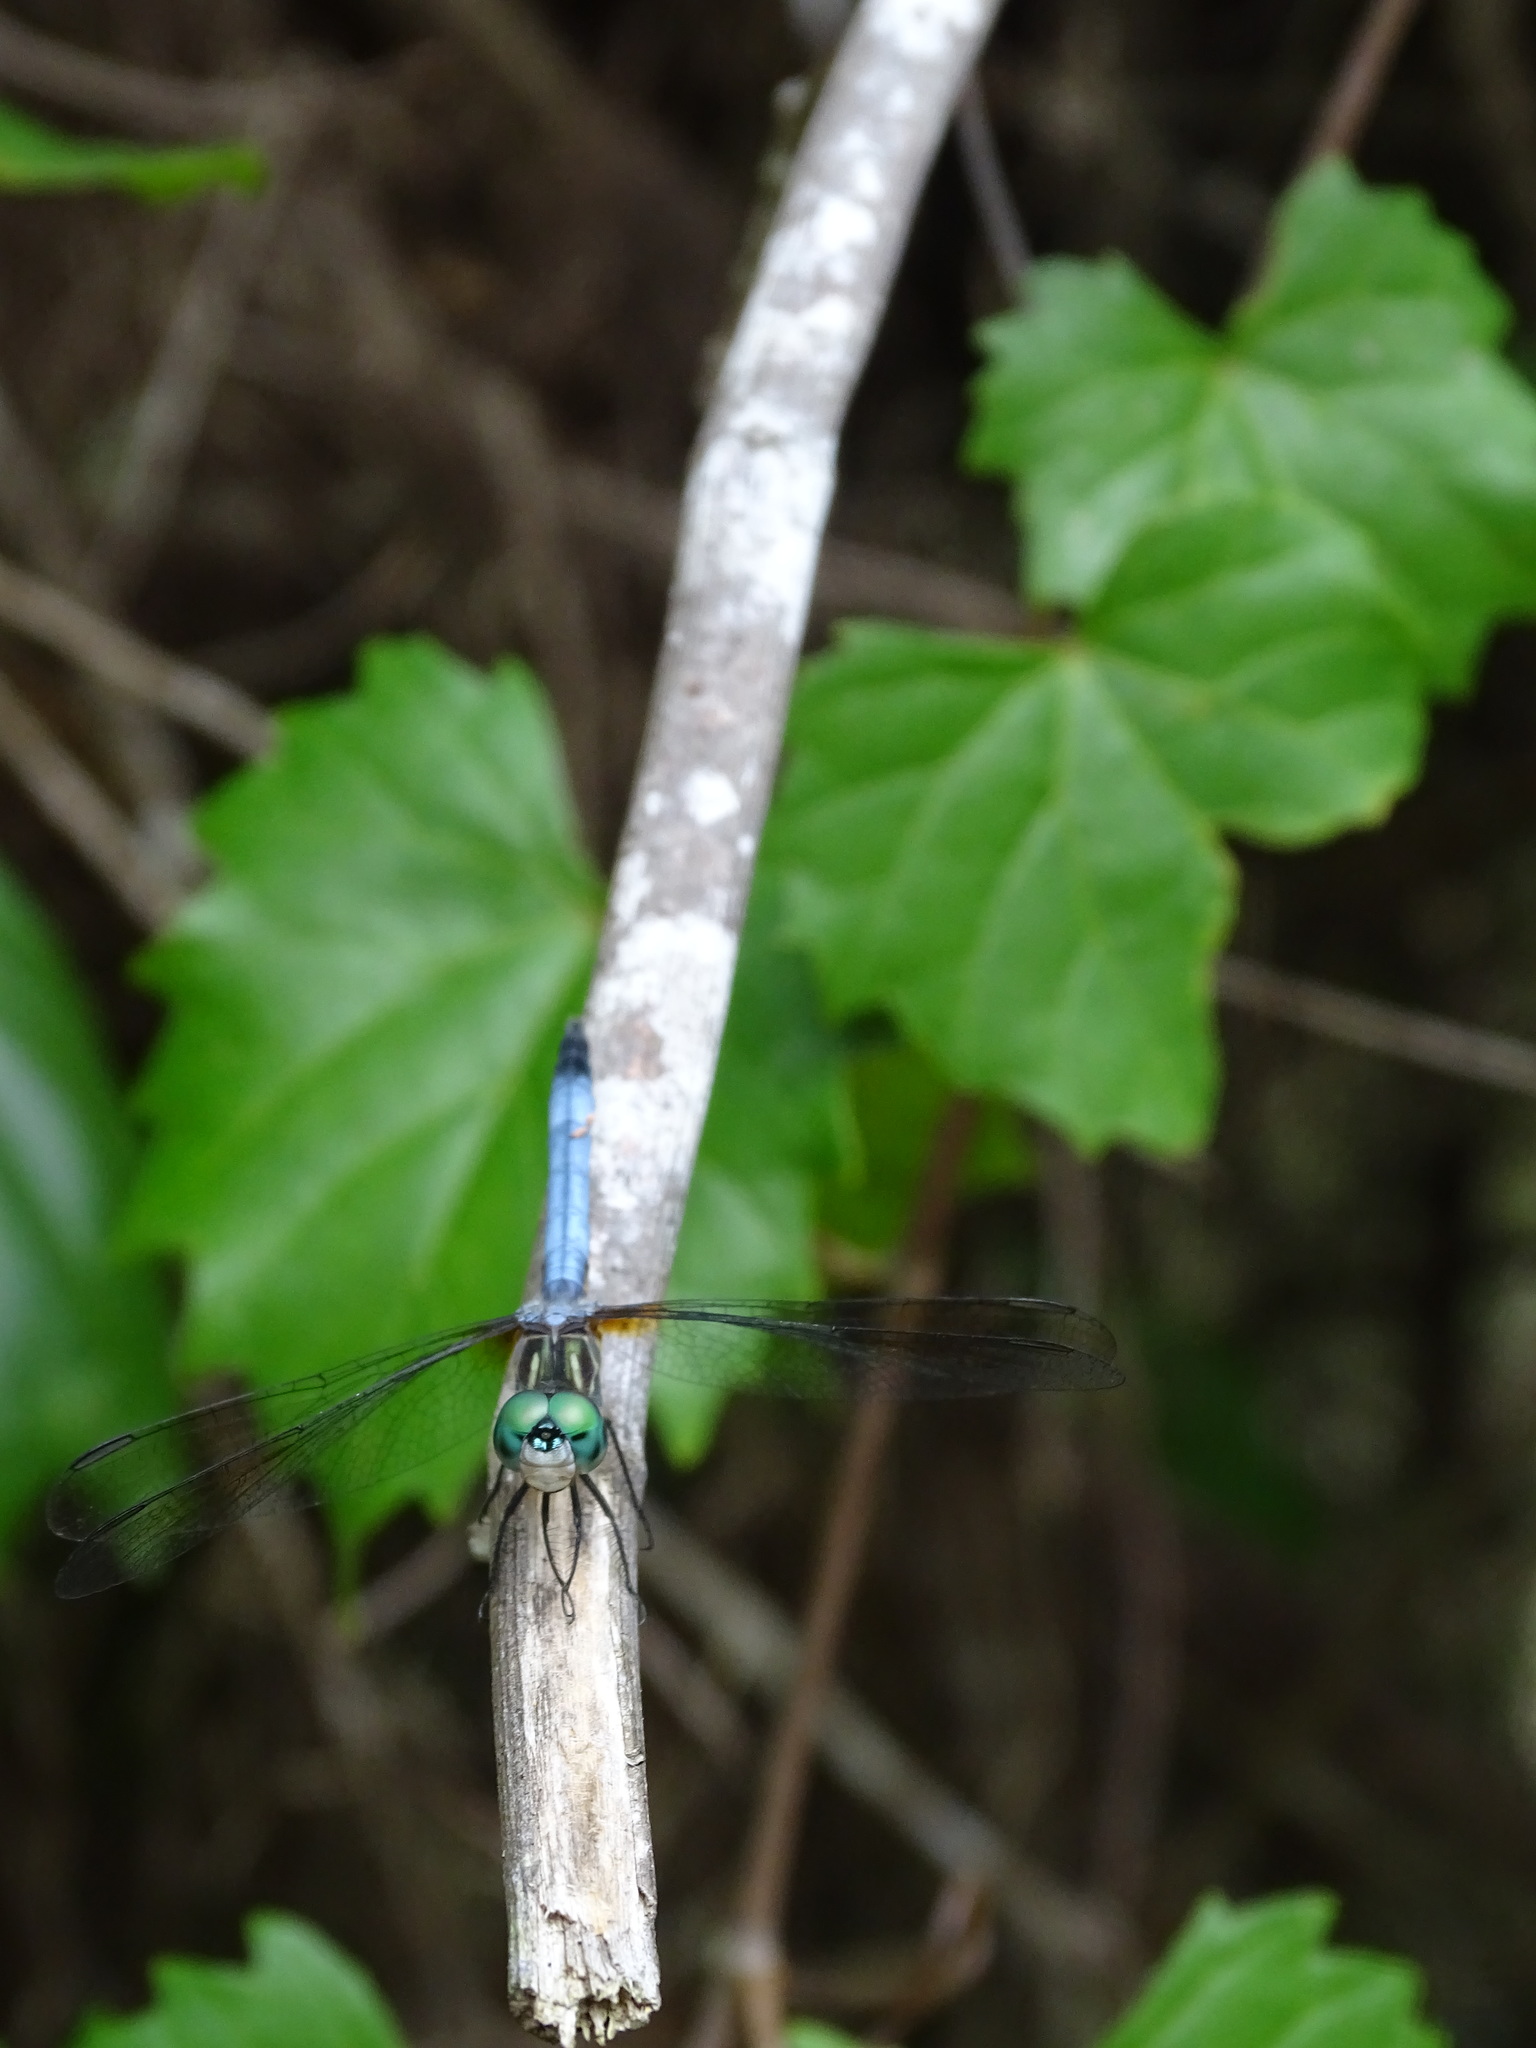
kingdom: Animalia
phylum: Arthropoda
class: Insecta
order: Odonata
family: Libellulidae
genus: Pachydiplax
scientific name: Pachydiplax longipennis
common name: Blue dasher
